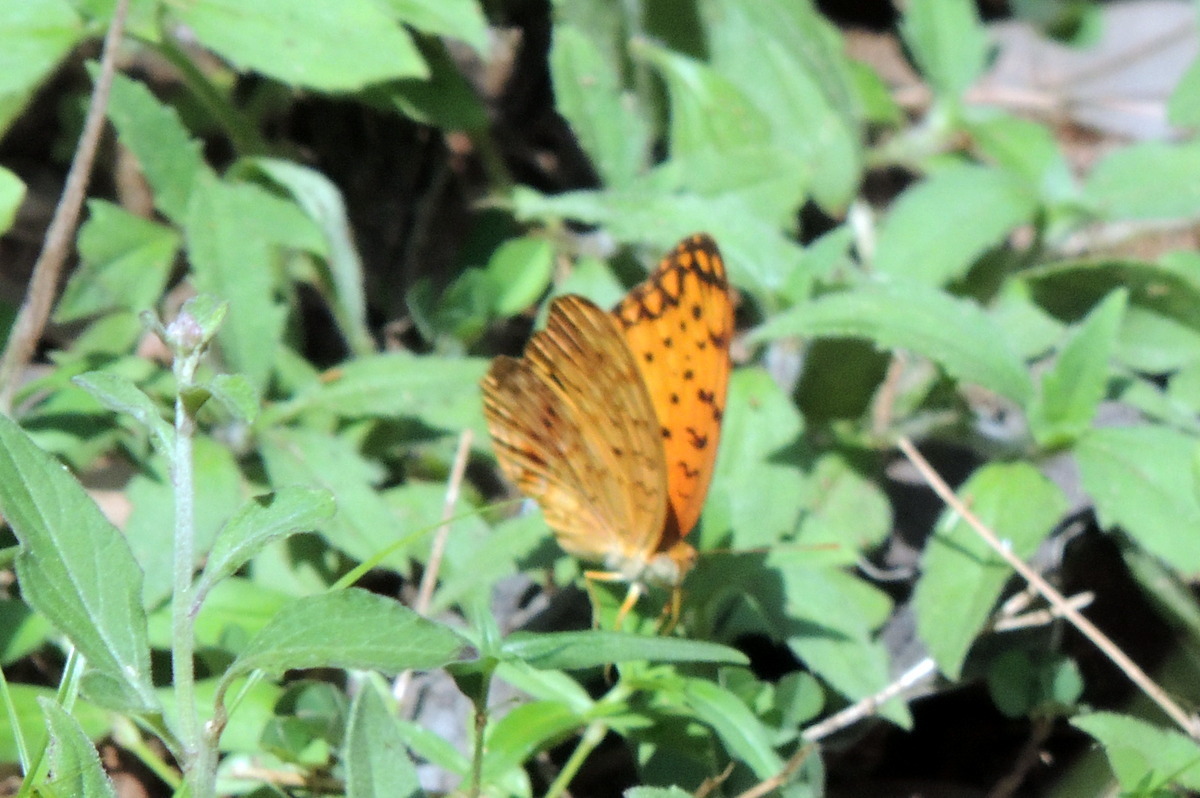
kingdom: Animalia
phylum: Arthropoda
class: Insecta
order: Lepidoptera
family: Nymphalidae
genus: Phalanta
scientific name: Phalanta phalantha
